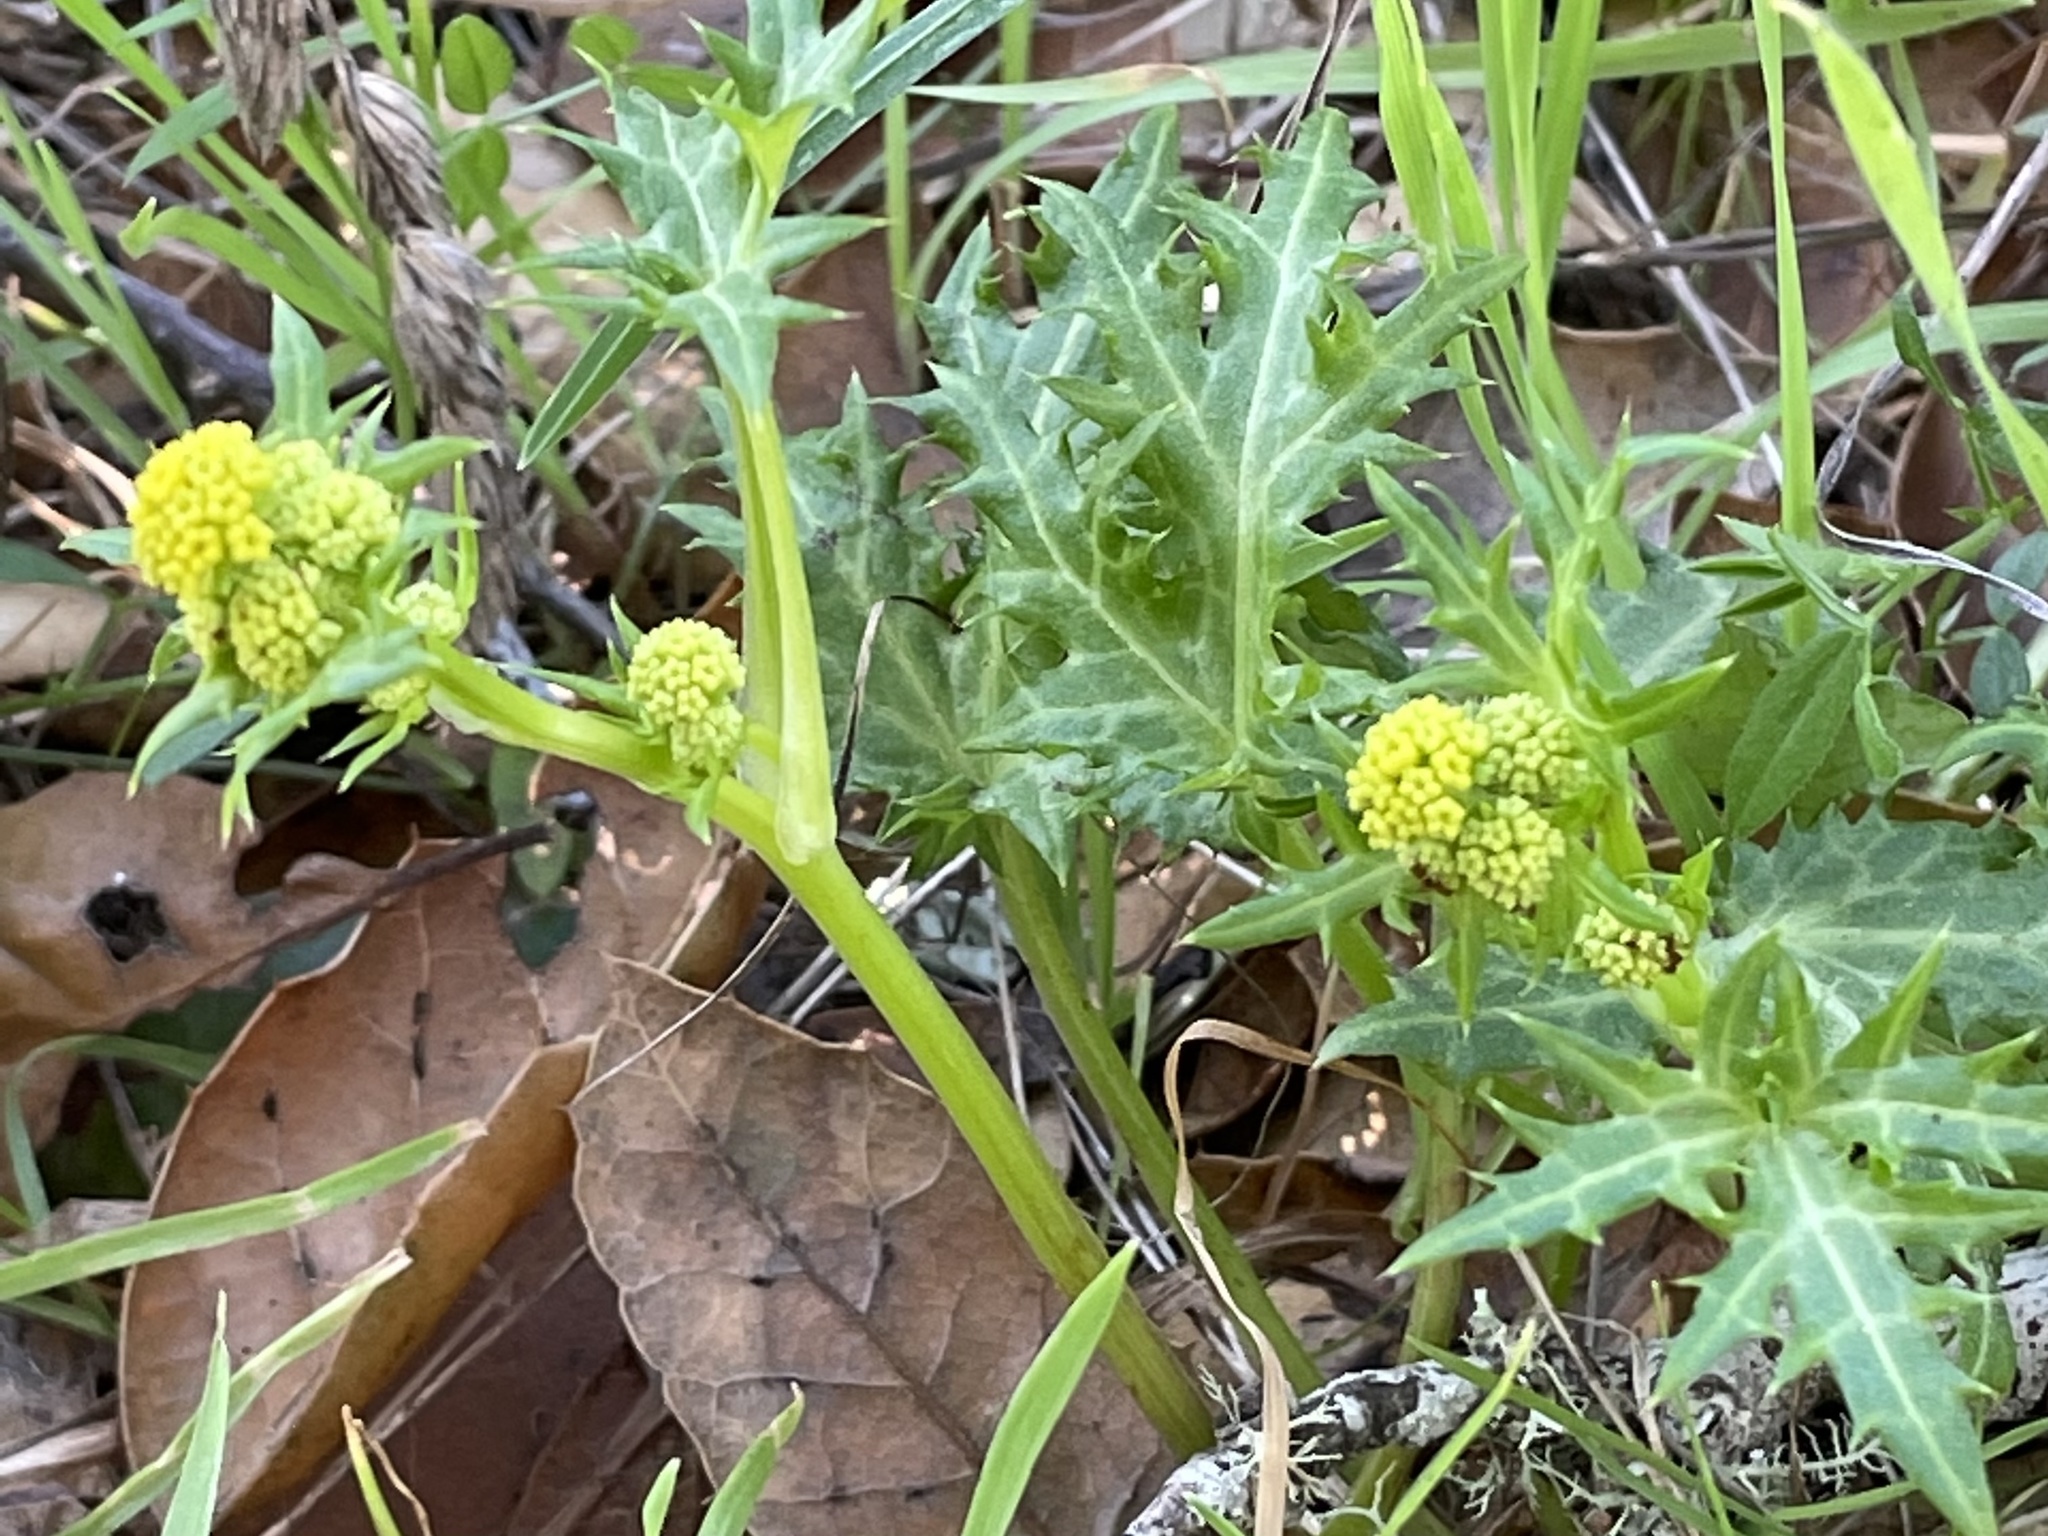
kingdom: Plantae
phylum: Tracheophyta
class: Magnoliopsida
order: Apiales
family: Apiaceae
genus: Sanicula
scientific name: Sanicula laciniata
